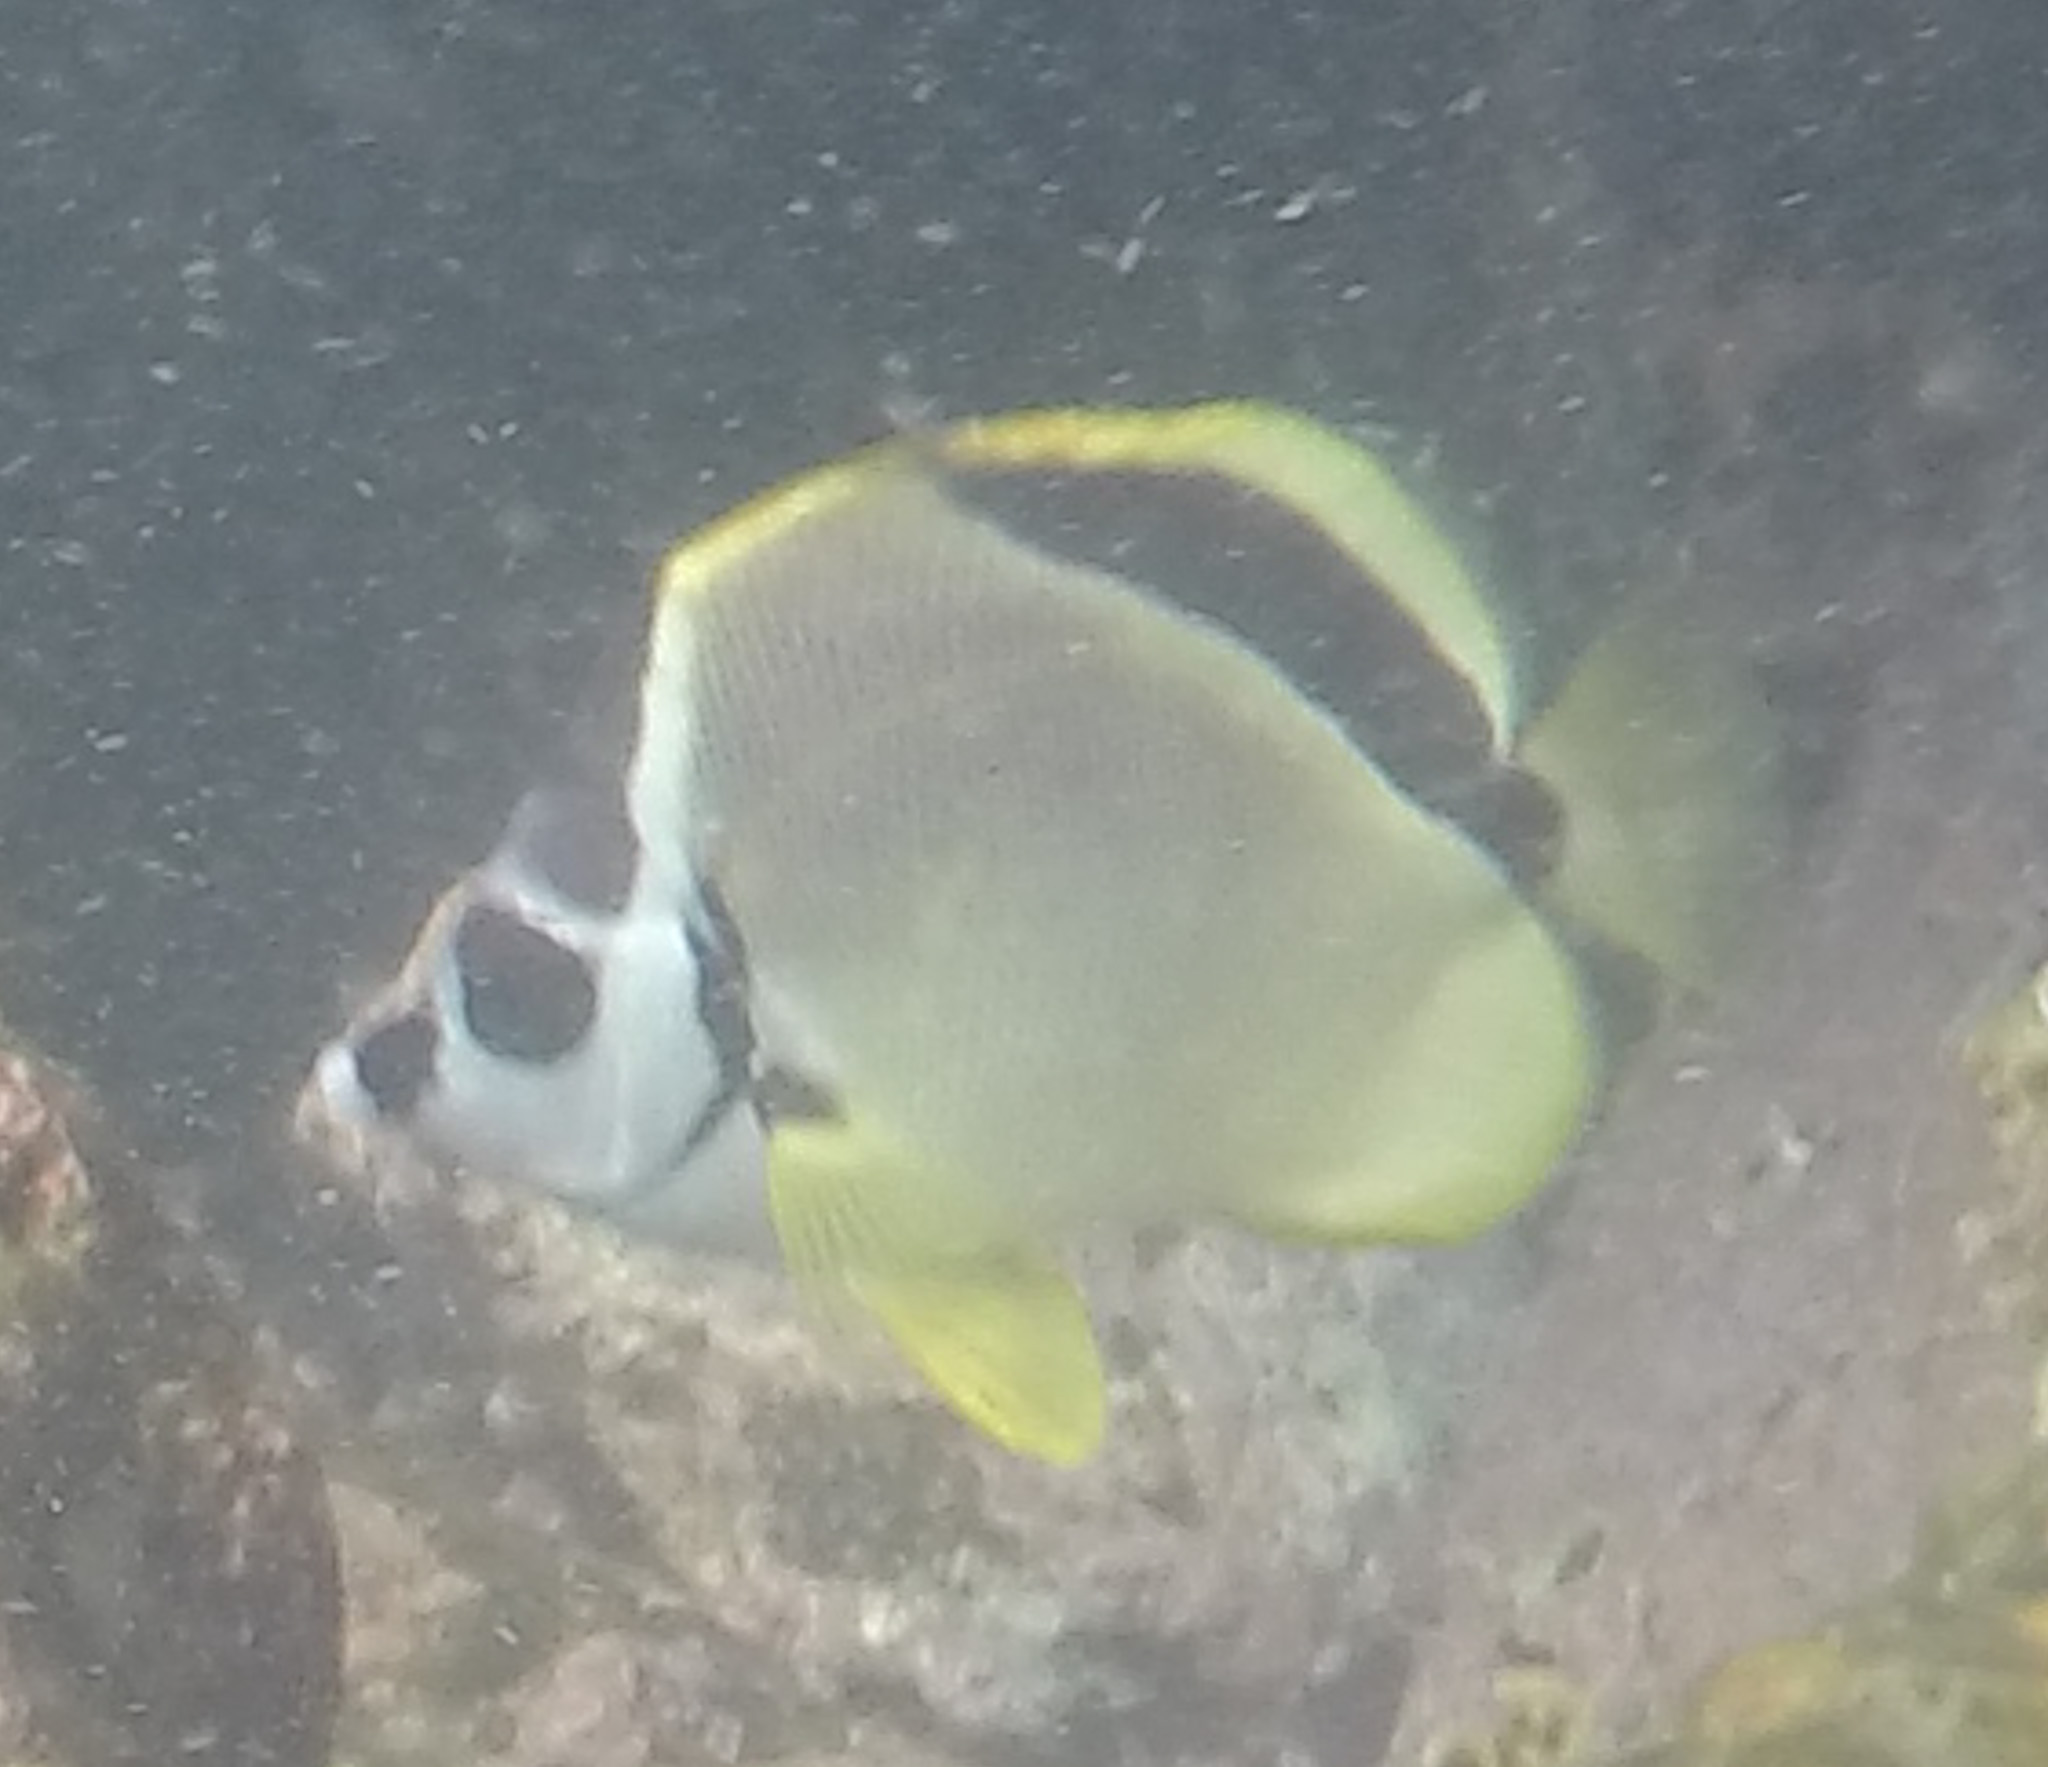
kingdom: Animalia
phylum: Chordata
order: Perciformes
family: Chaetodontidae
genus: Johnrandallia
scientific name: Johnrandallia nigrirostris
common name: Barberfish
